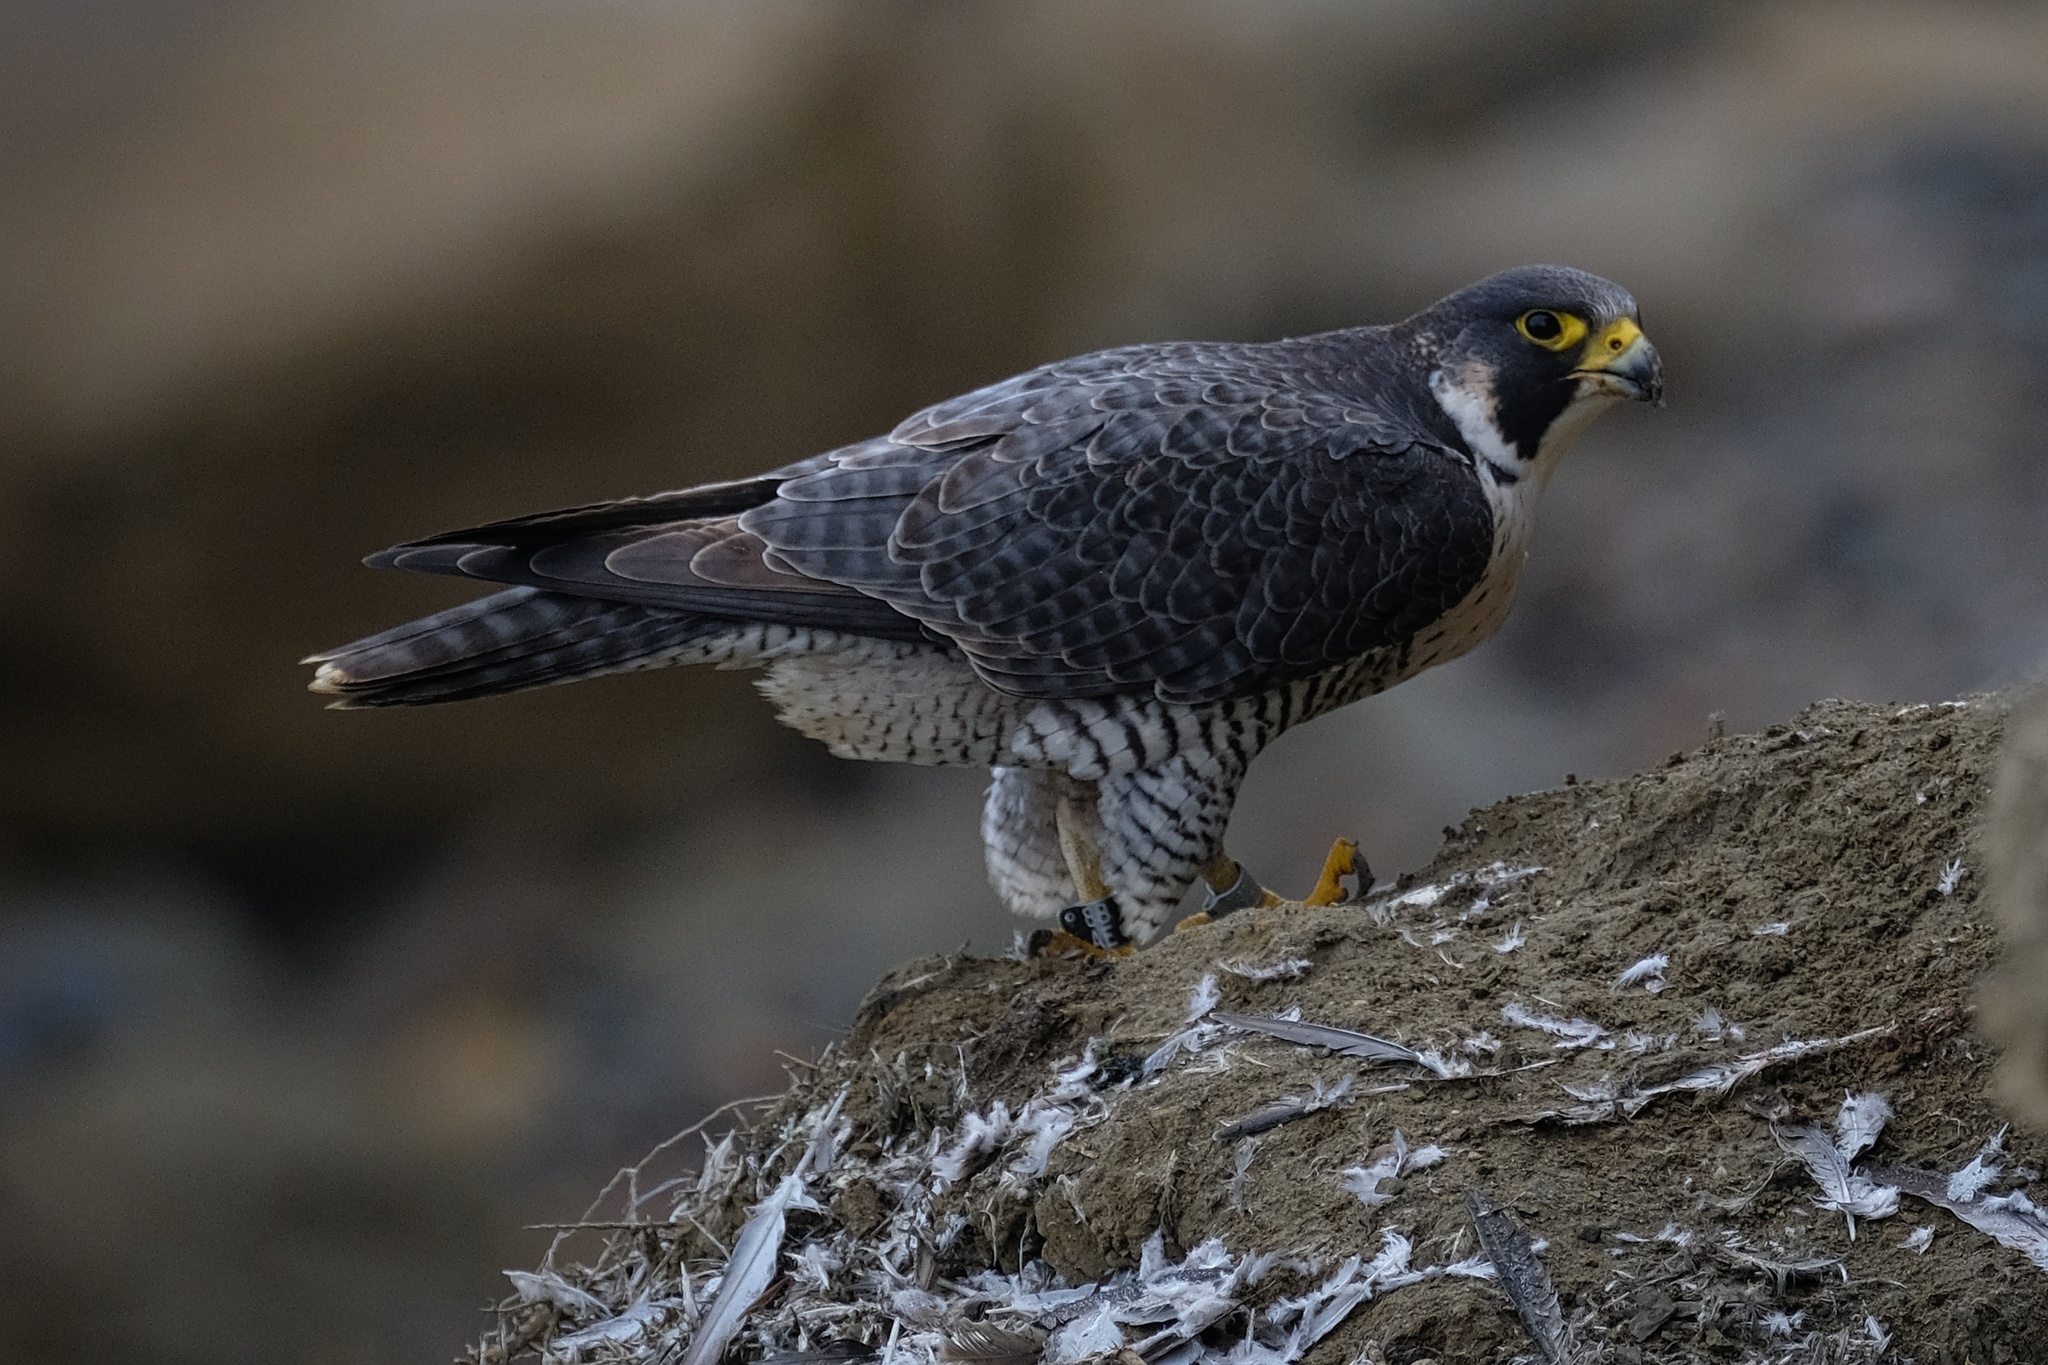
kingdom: Animalia
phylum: Chordata
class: Aves
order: Falconiformes
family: Falconidae
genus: Falco
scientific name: Falco peregrinus
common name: Peregrine falcon
